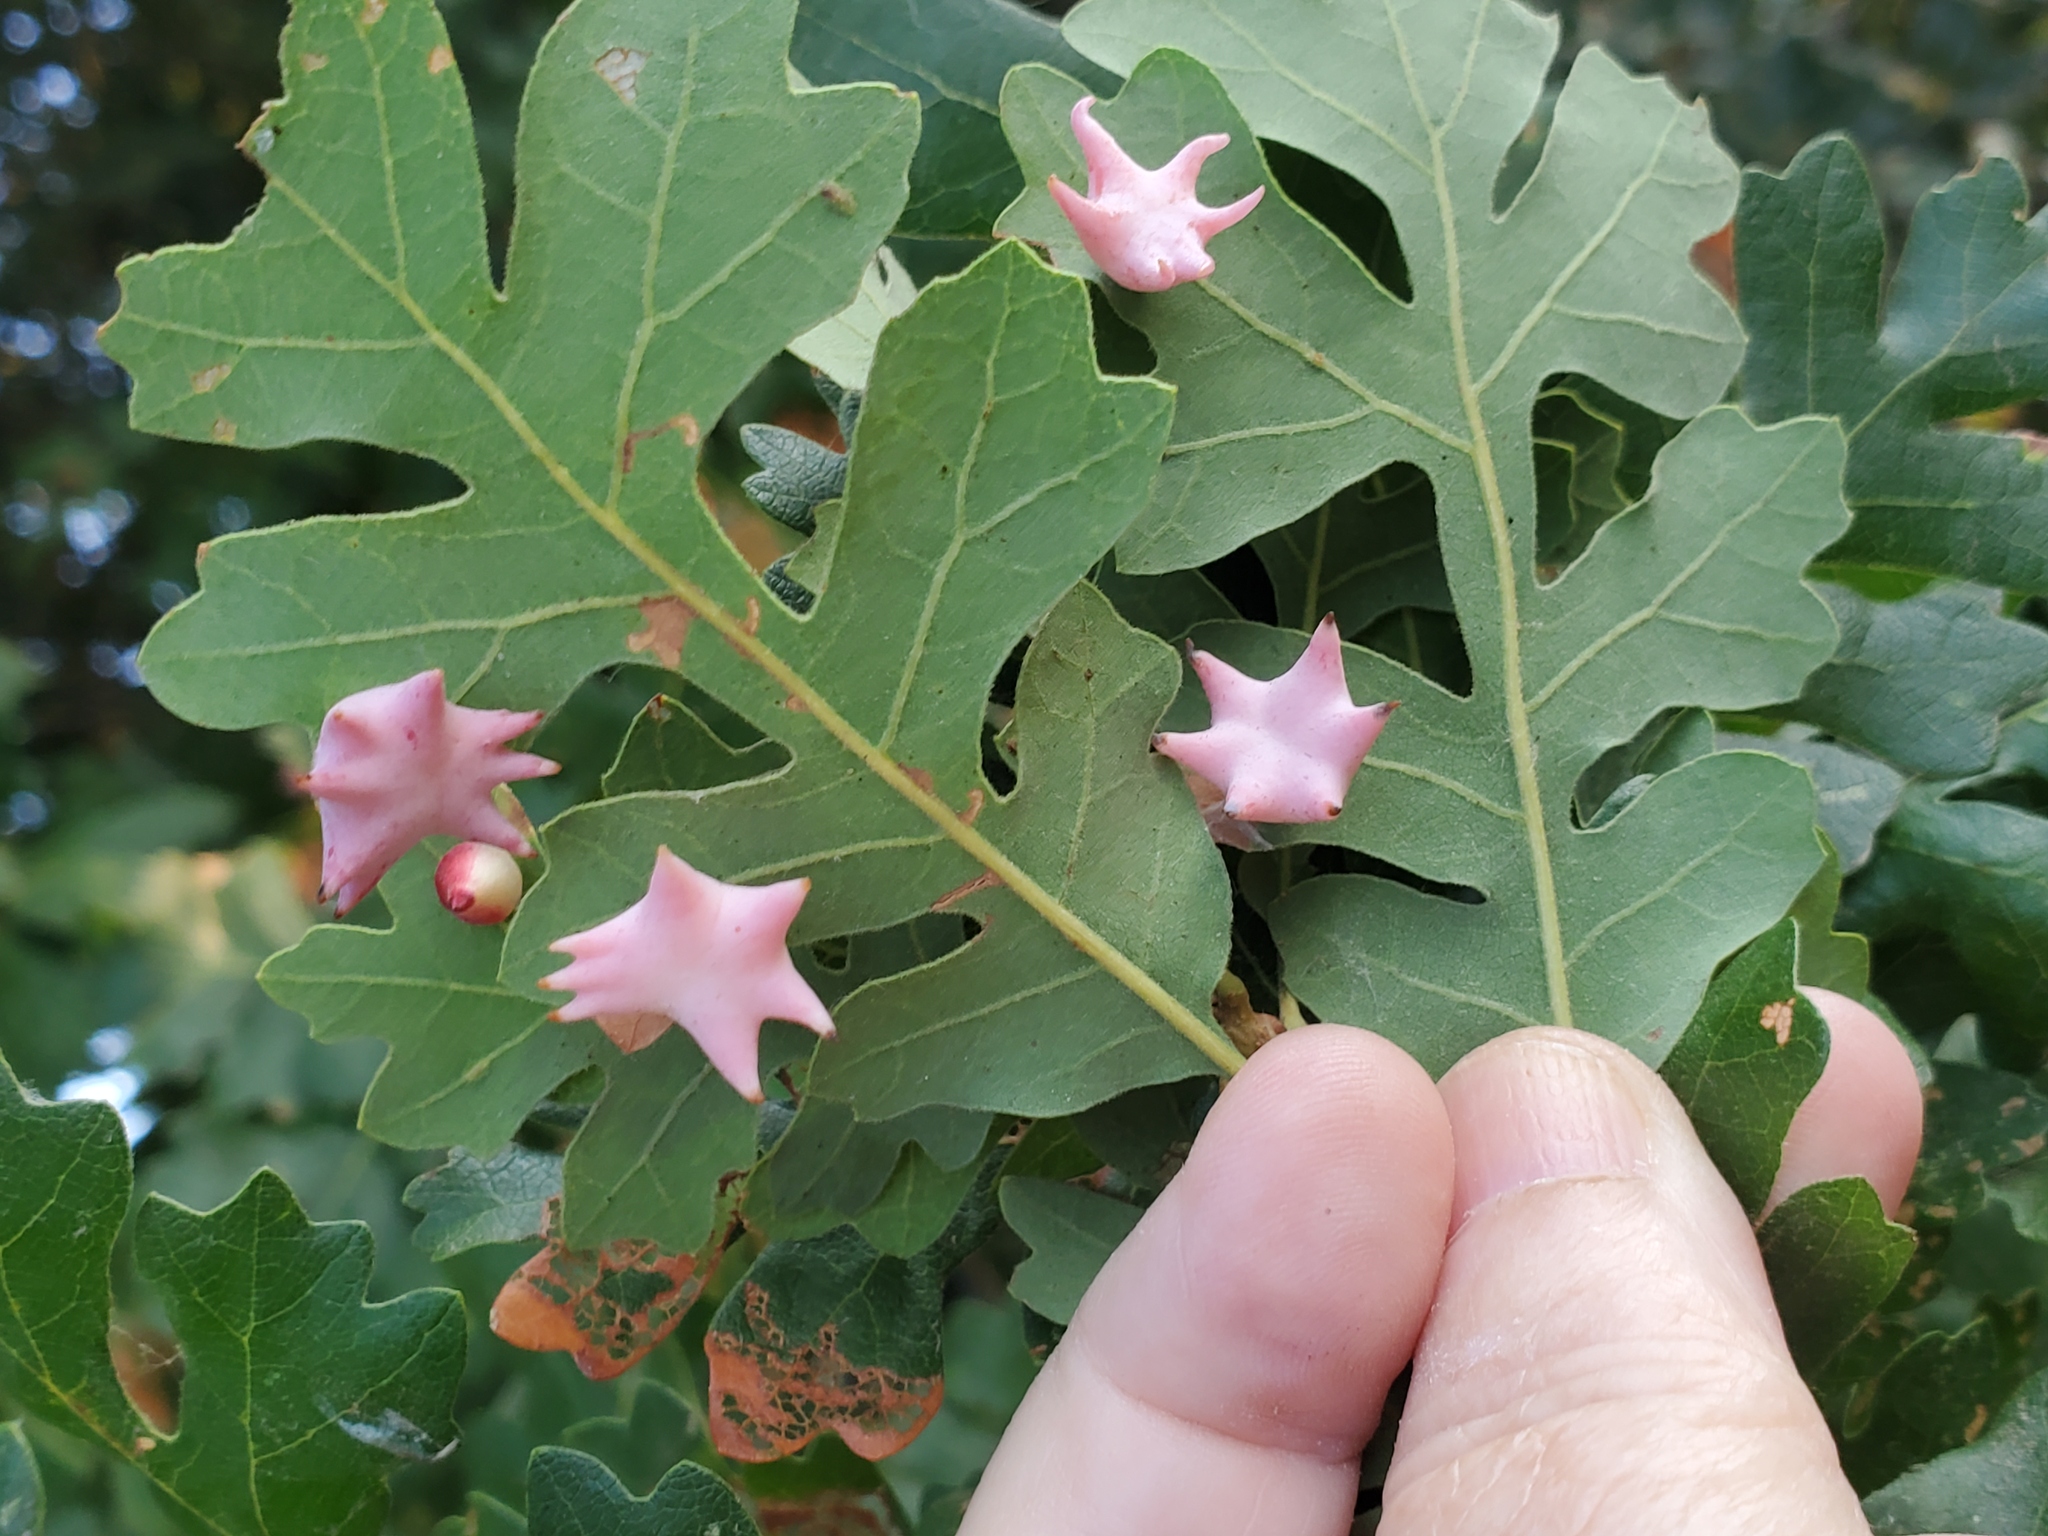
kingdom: Animalia
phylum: Arthropoda
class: Insecta
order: Hymenoptera
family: Cynipidae
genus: Cynips
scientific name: Cynips douglasi
